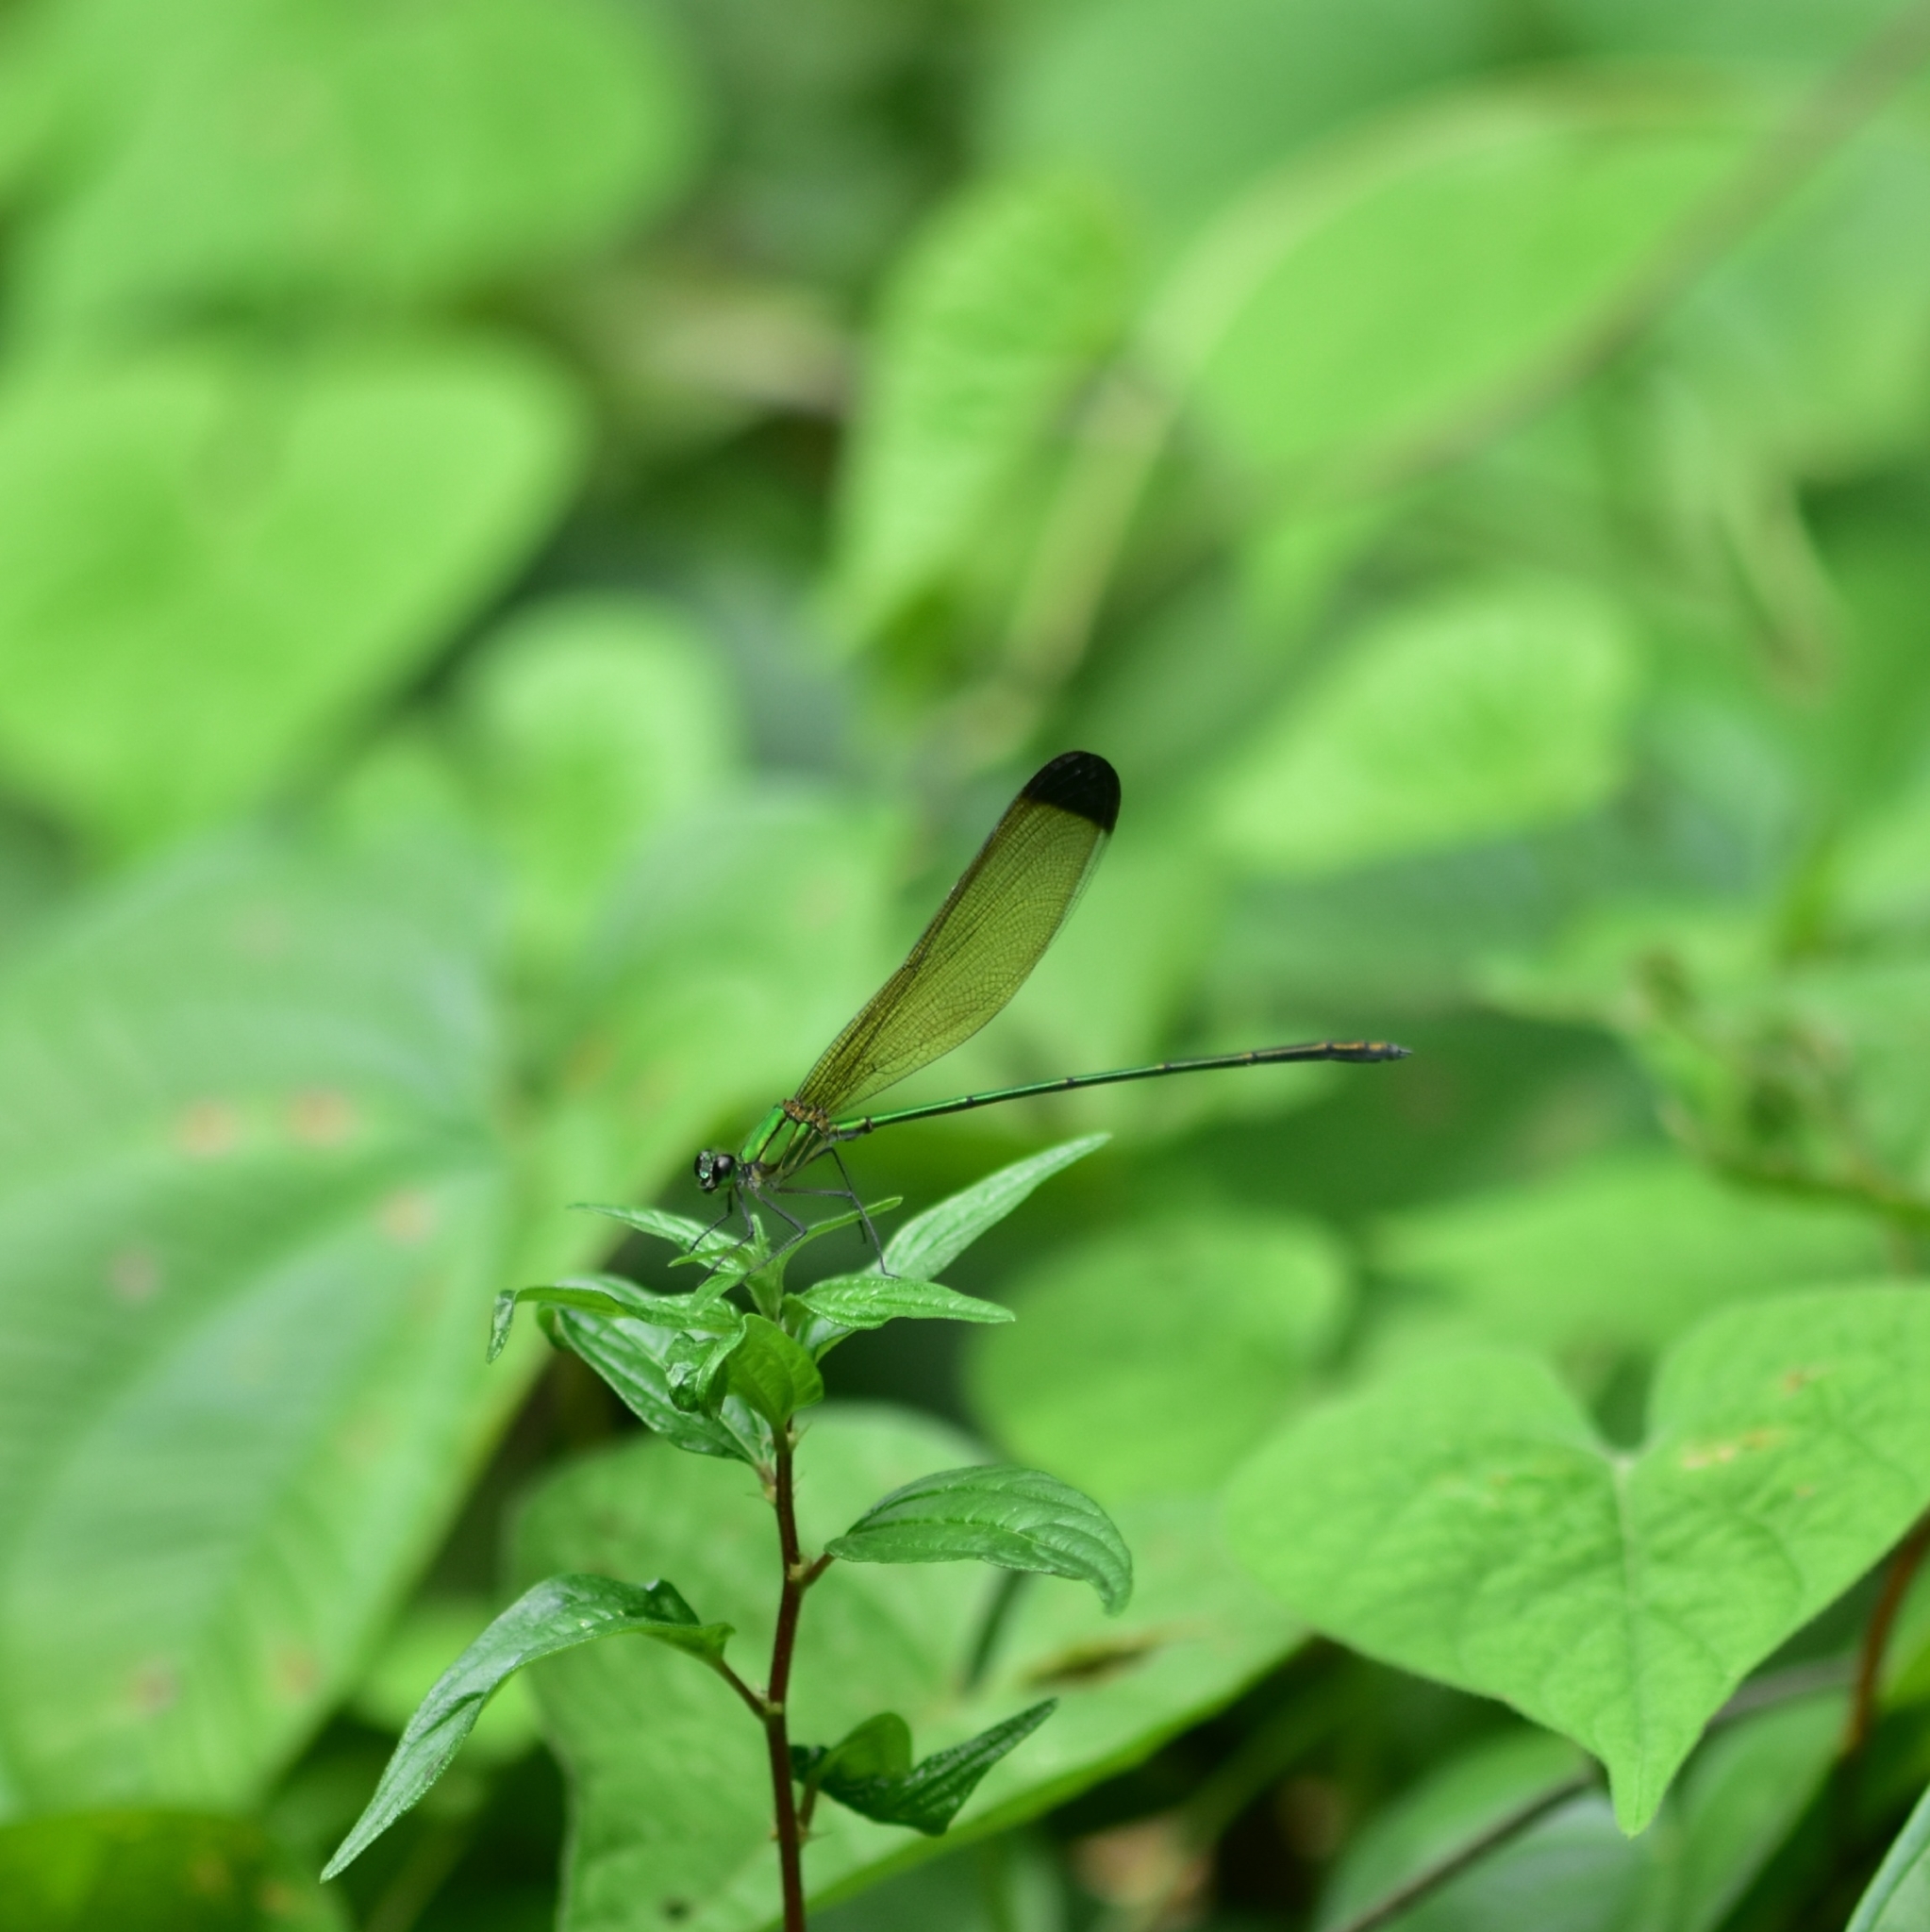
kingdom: Animalia
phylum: Arthropoda
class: Insecta
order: Odonata
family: Calopterygidae
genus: Vestalis
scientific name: Vestalis apicalis
